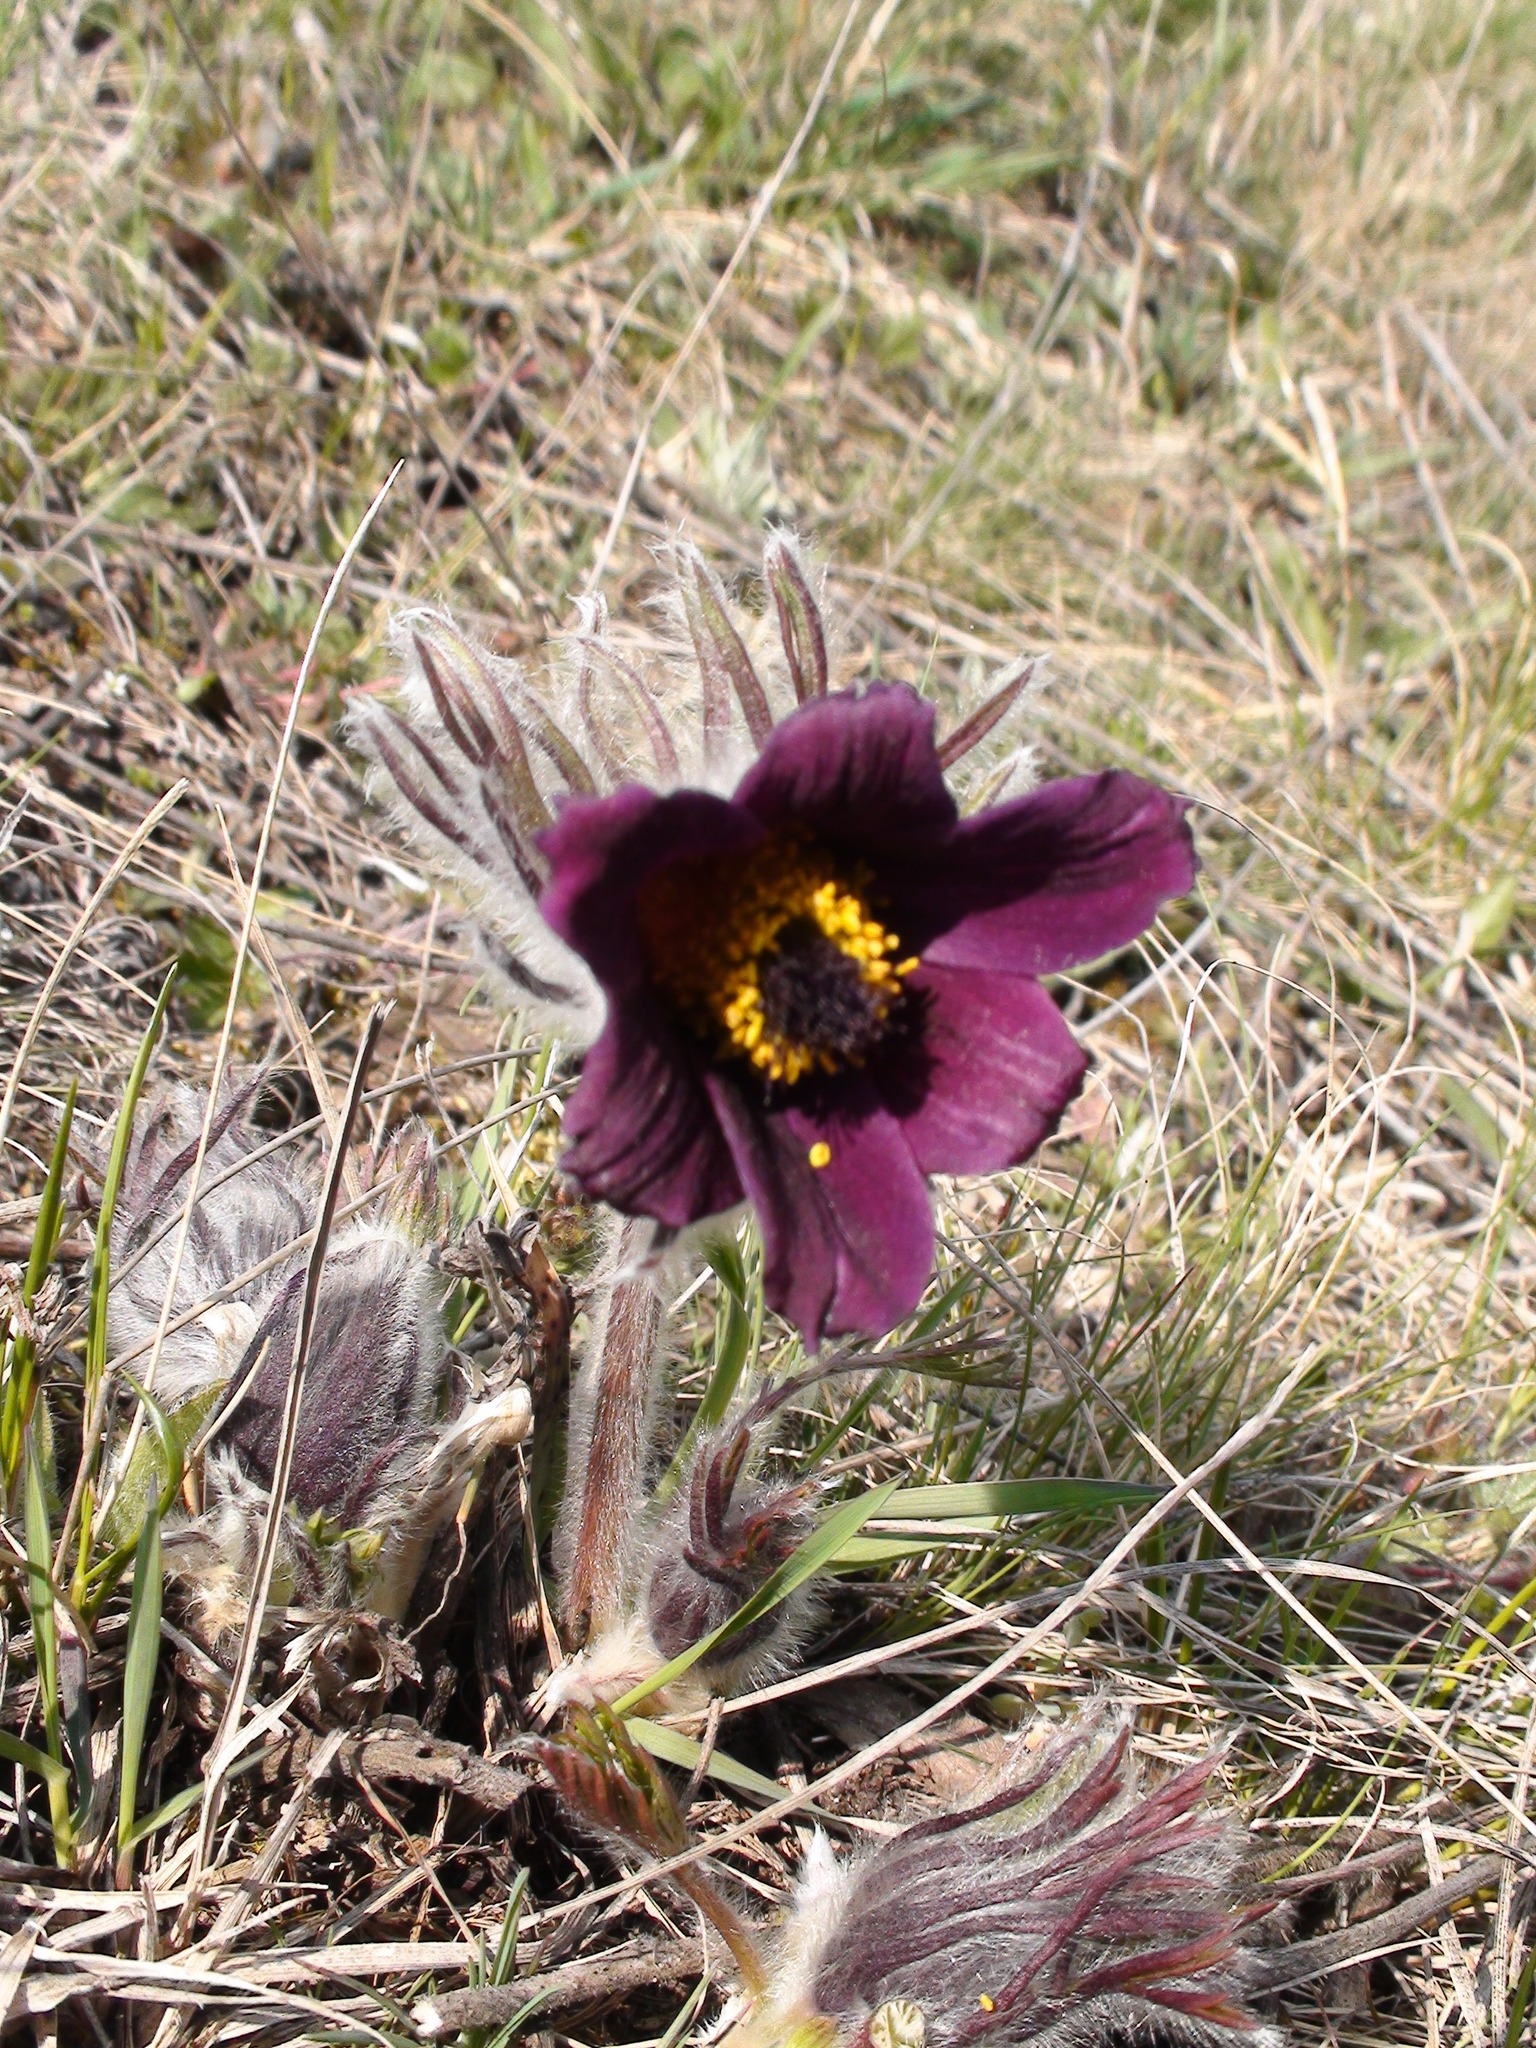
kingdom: Plantae
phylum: Tracheophyta
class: Magnoliopsida
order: Ranunculales
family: Ranunculaceae
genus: Pulsatilla
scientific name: Pulsatilla pratensis
